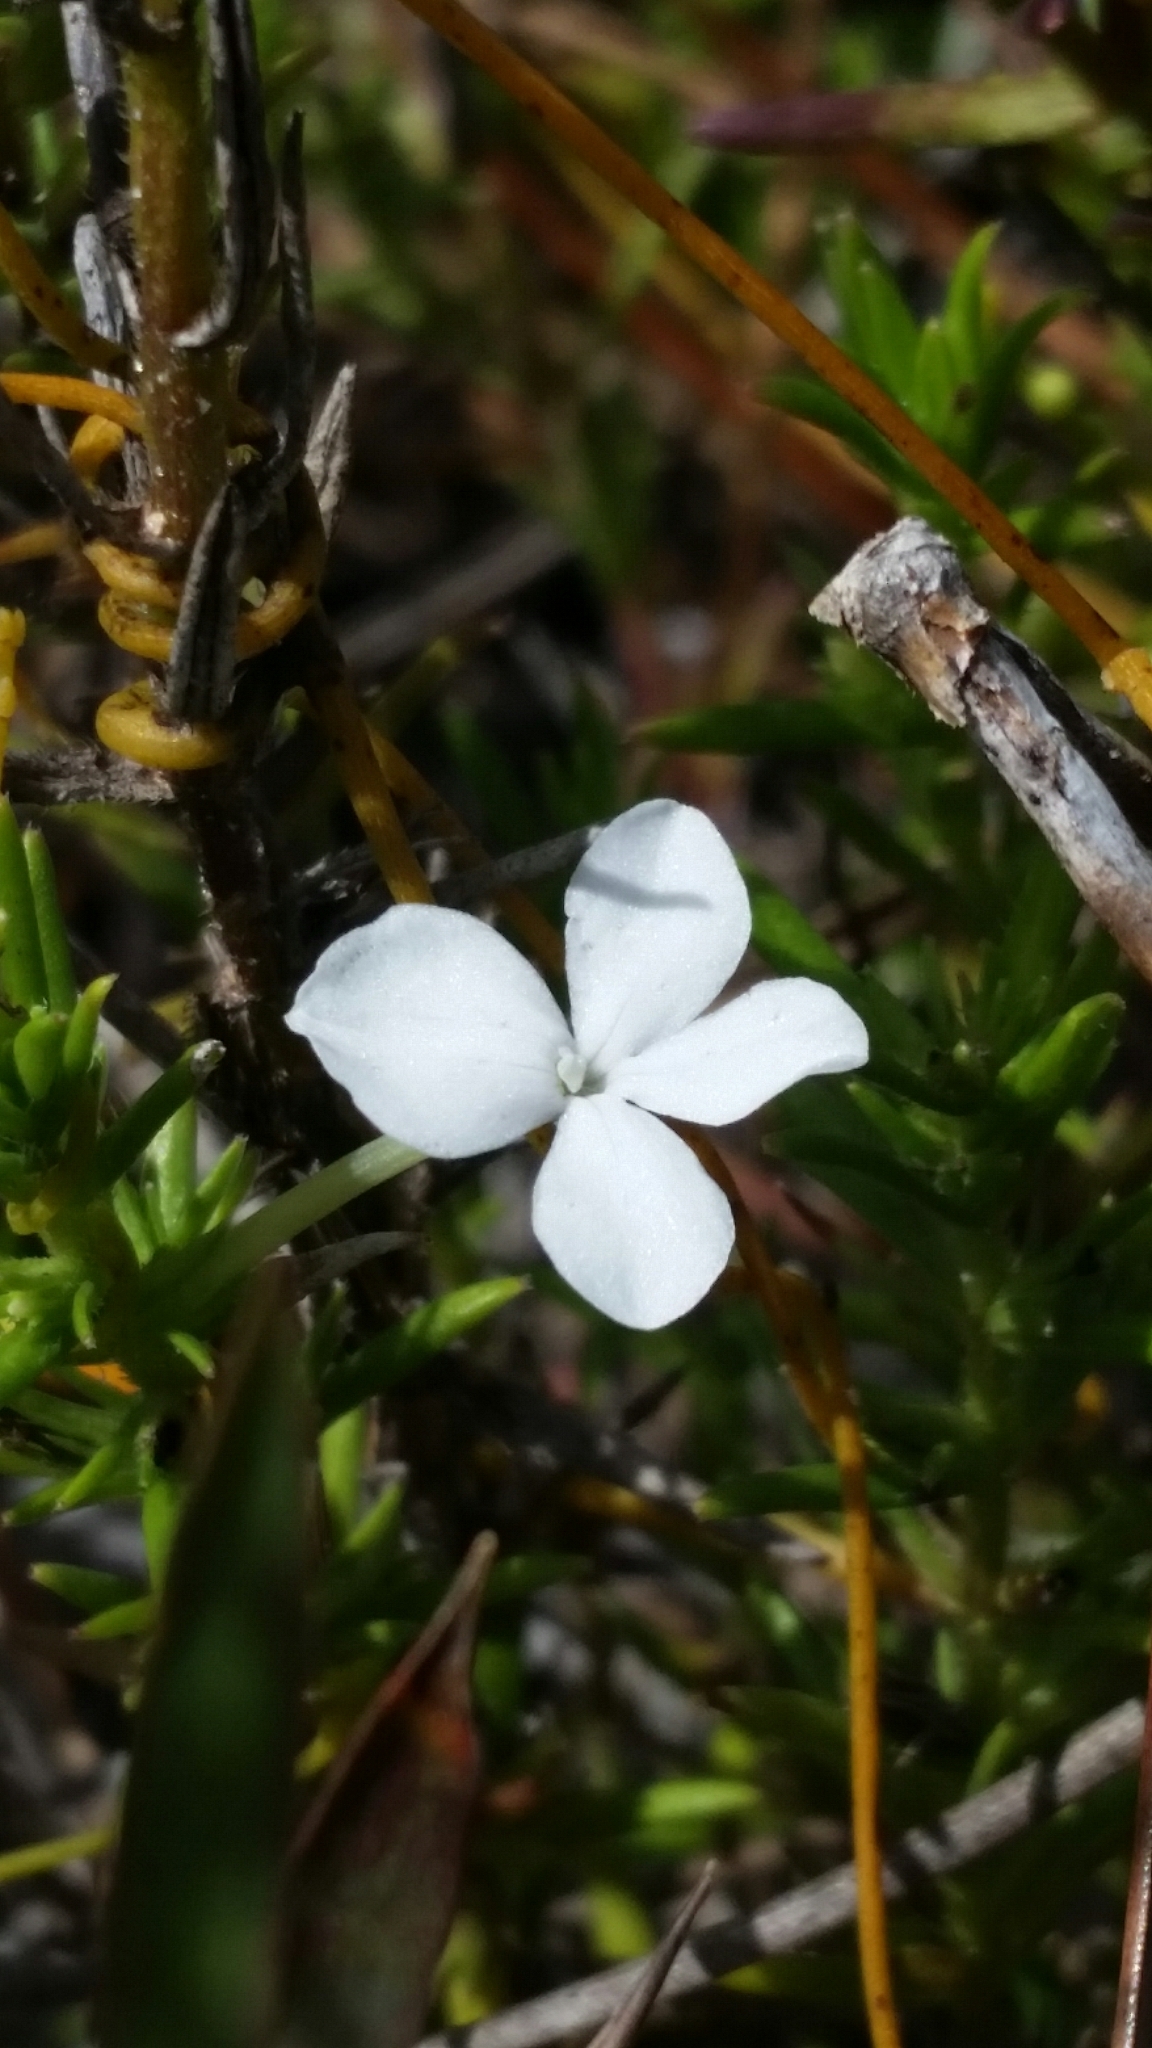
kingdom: Plantae
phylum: Tracheophyta
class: Magnoliopsida
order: Lamiales
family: Plantaginaceae
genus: Gratiola
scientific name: Gratiola hispida
